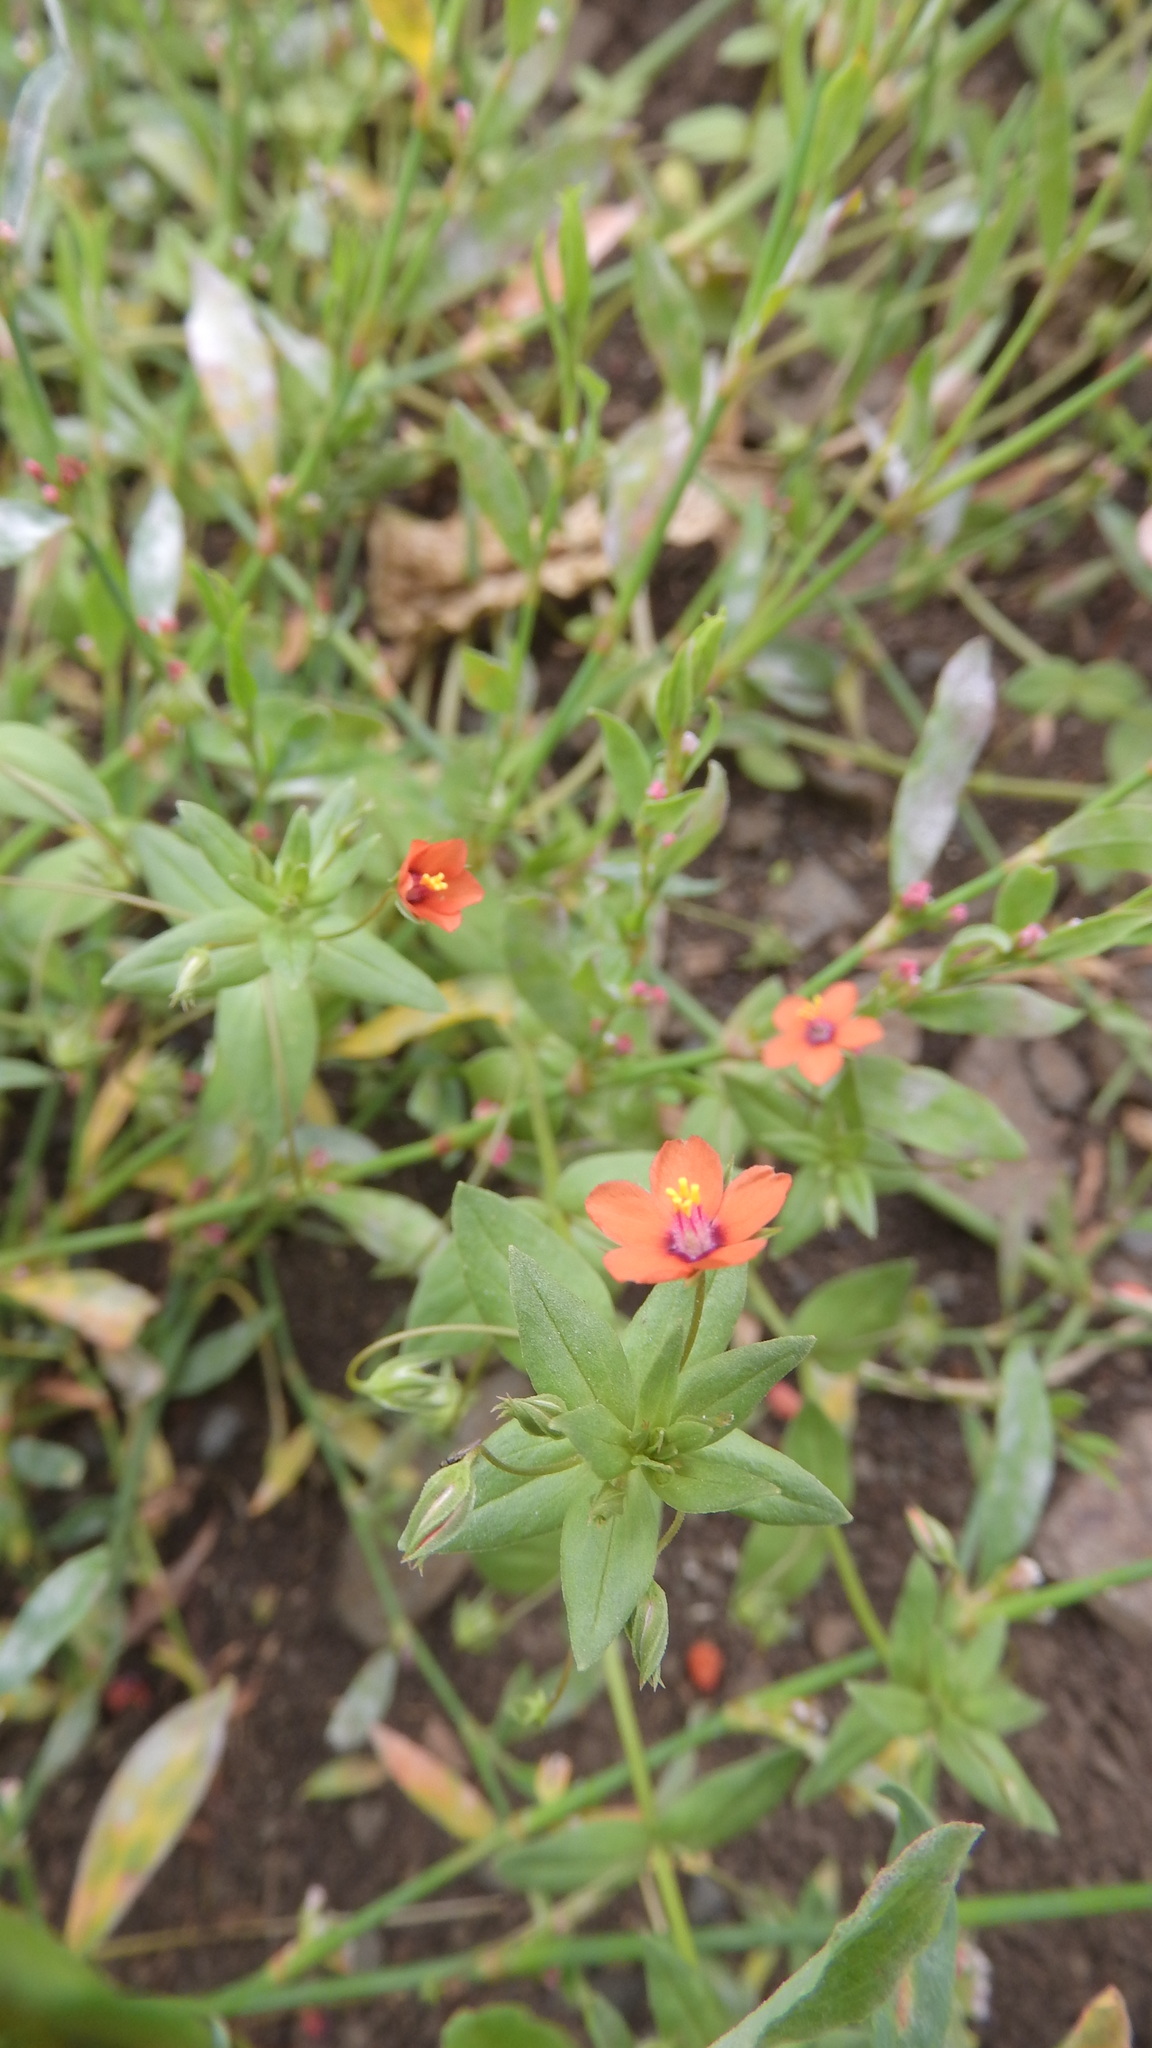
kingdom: Plantae
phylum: Tracheophyta
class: Magnoliopsida
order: Ericales
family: Primulaceae
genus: Lysimachia
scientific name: Lysimachia arvensis
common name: Scarlet pimpernel
